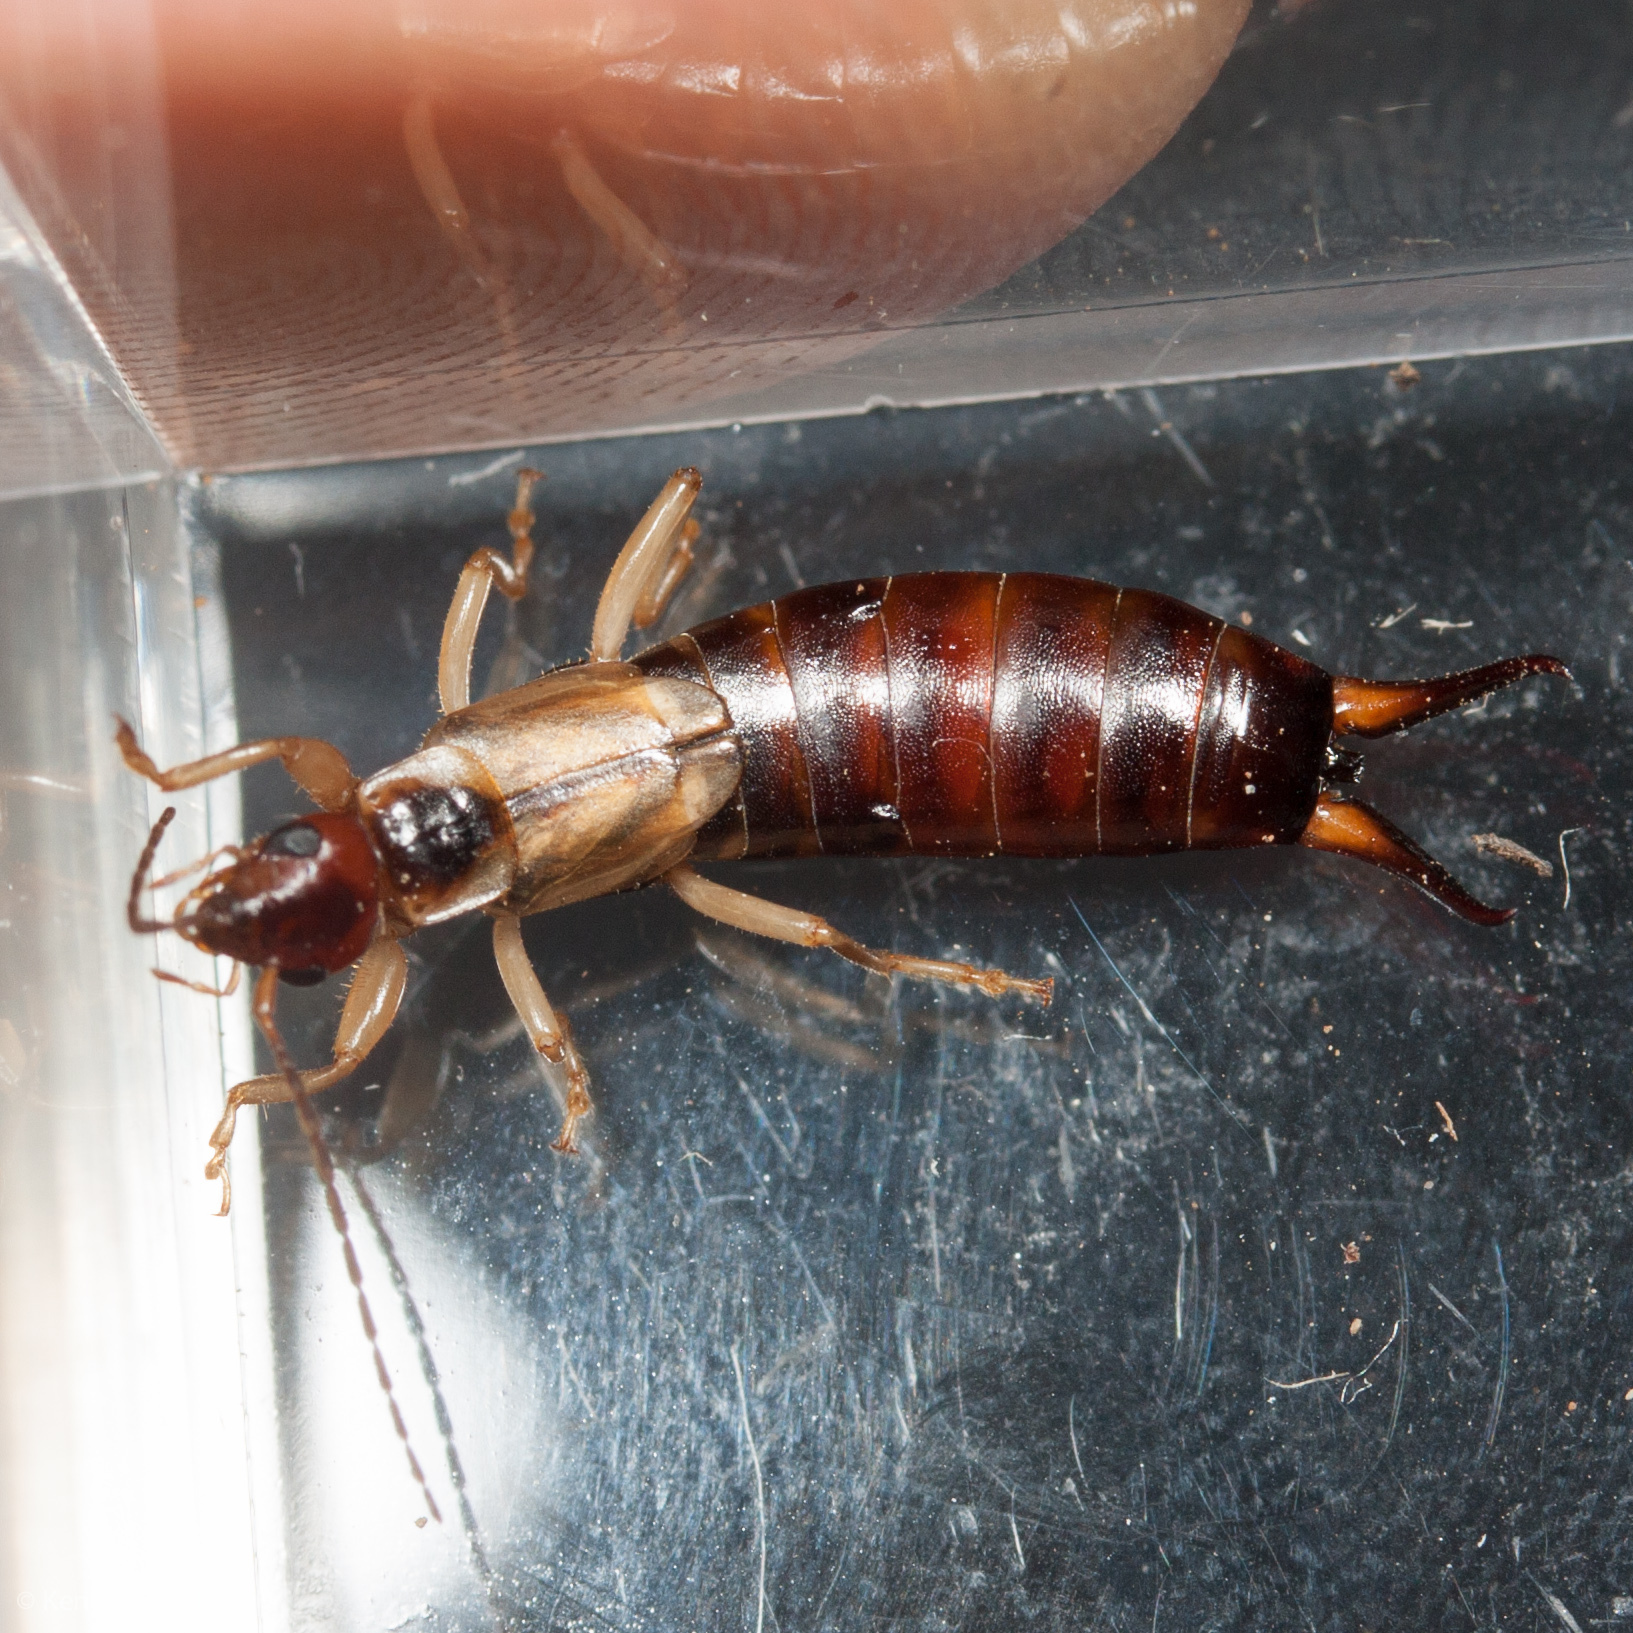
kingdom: Animalia
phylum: Arthropoda
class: Insecta
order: Dermaptera
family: Forficulidae
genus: Forficula
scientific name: Forficula dentata
